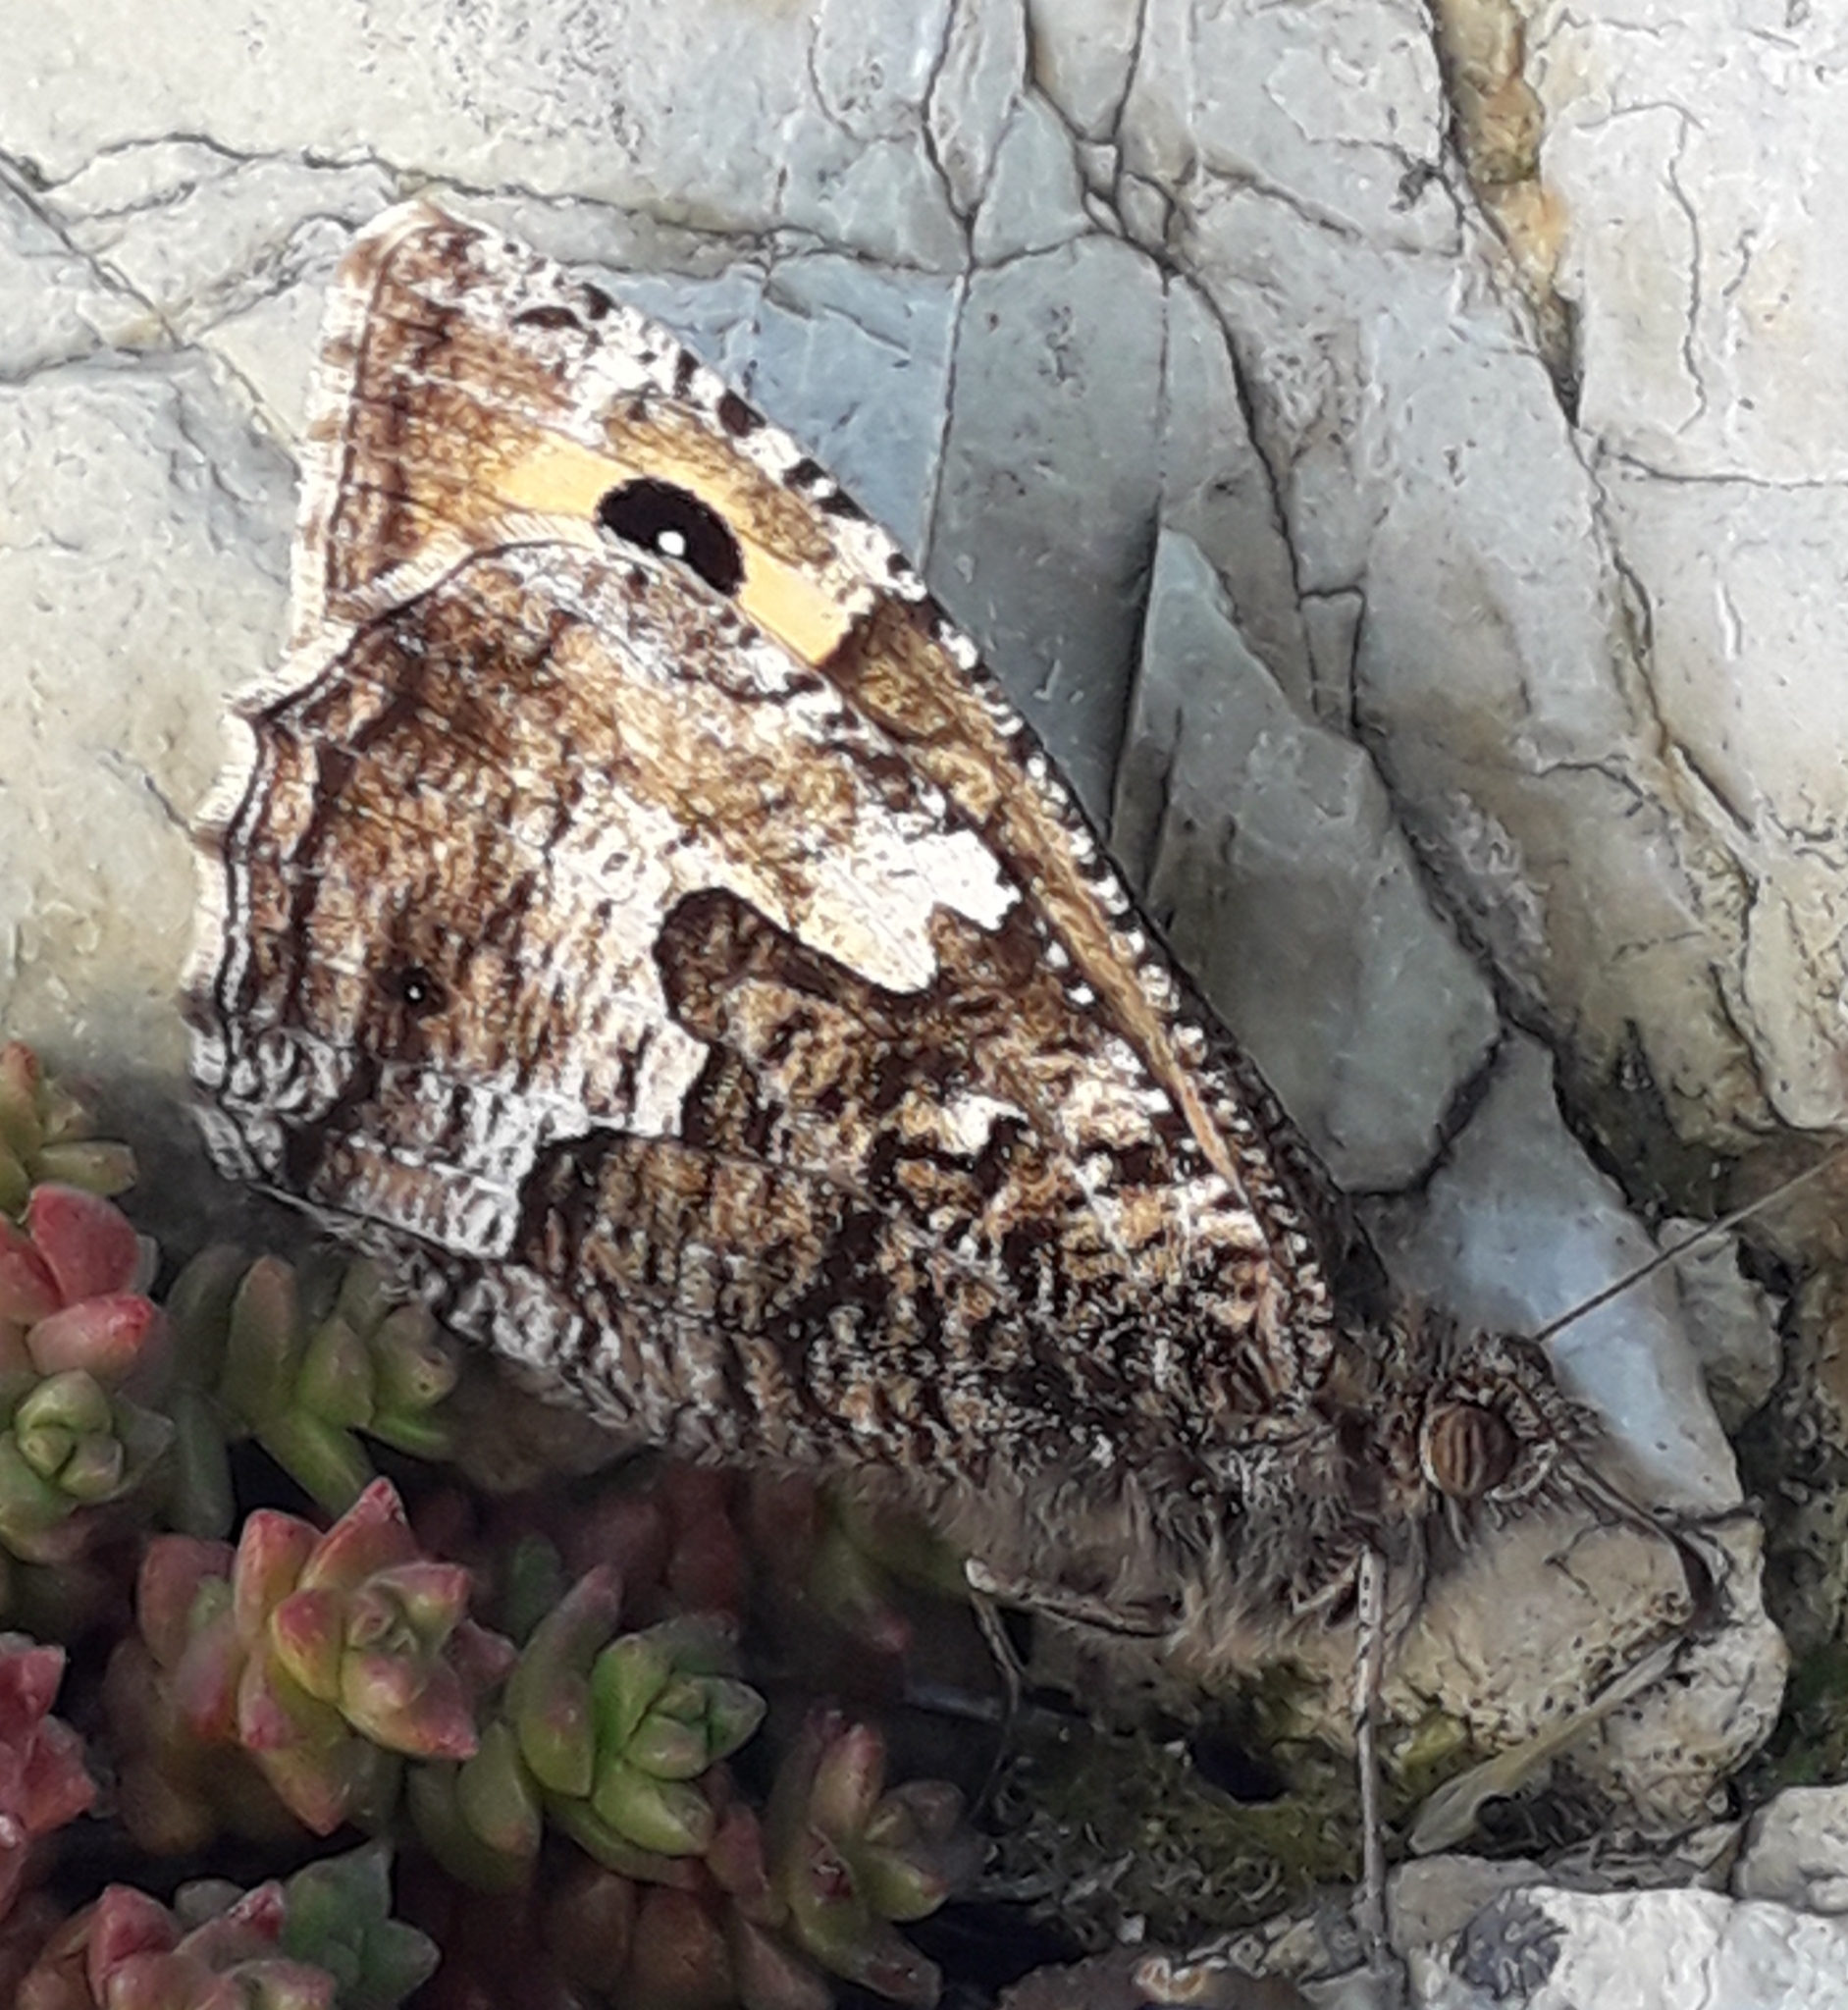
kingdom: Animalia
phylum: Arthropoda
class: Insecta
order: Lepidoptera
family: Nymphalidae
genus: Hipparchia
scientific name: Hipparchia semele
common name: Grayling
